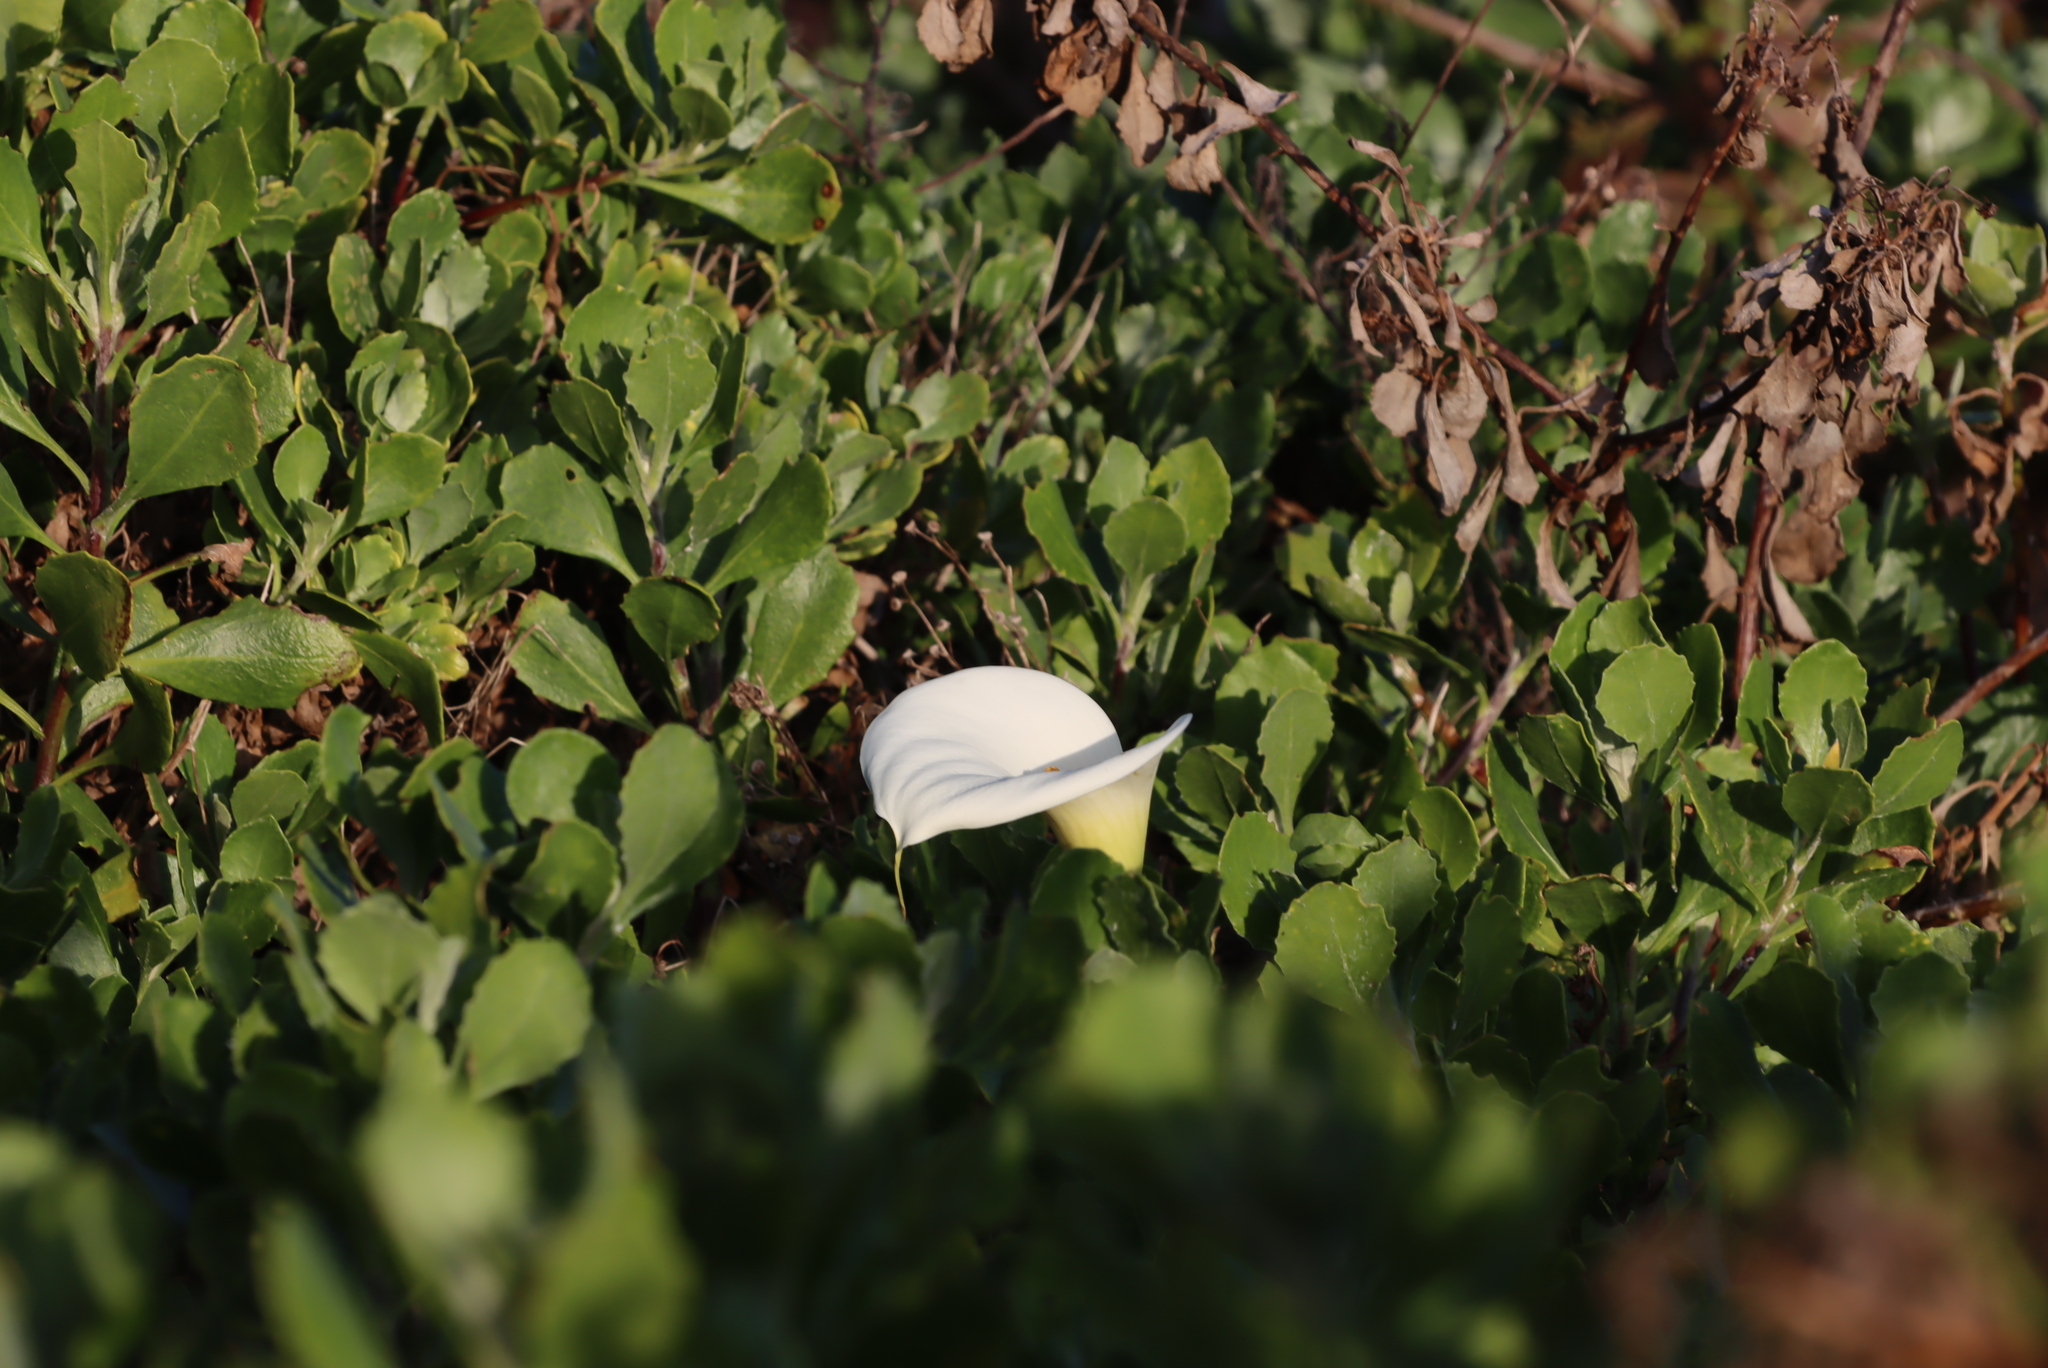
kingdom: Plantae
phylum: Tracheophyta
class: Liliopsida
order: Alismatales
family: Araceae
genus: Zantedeschia
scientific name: Zantedeschia aethiopica
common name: Altar-lily
